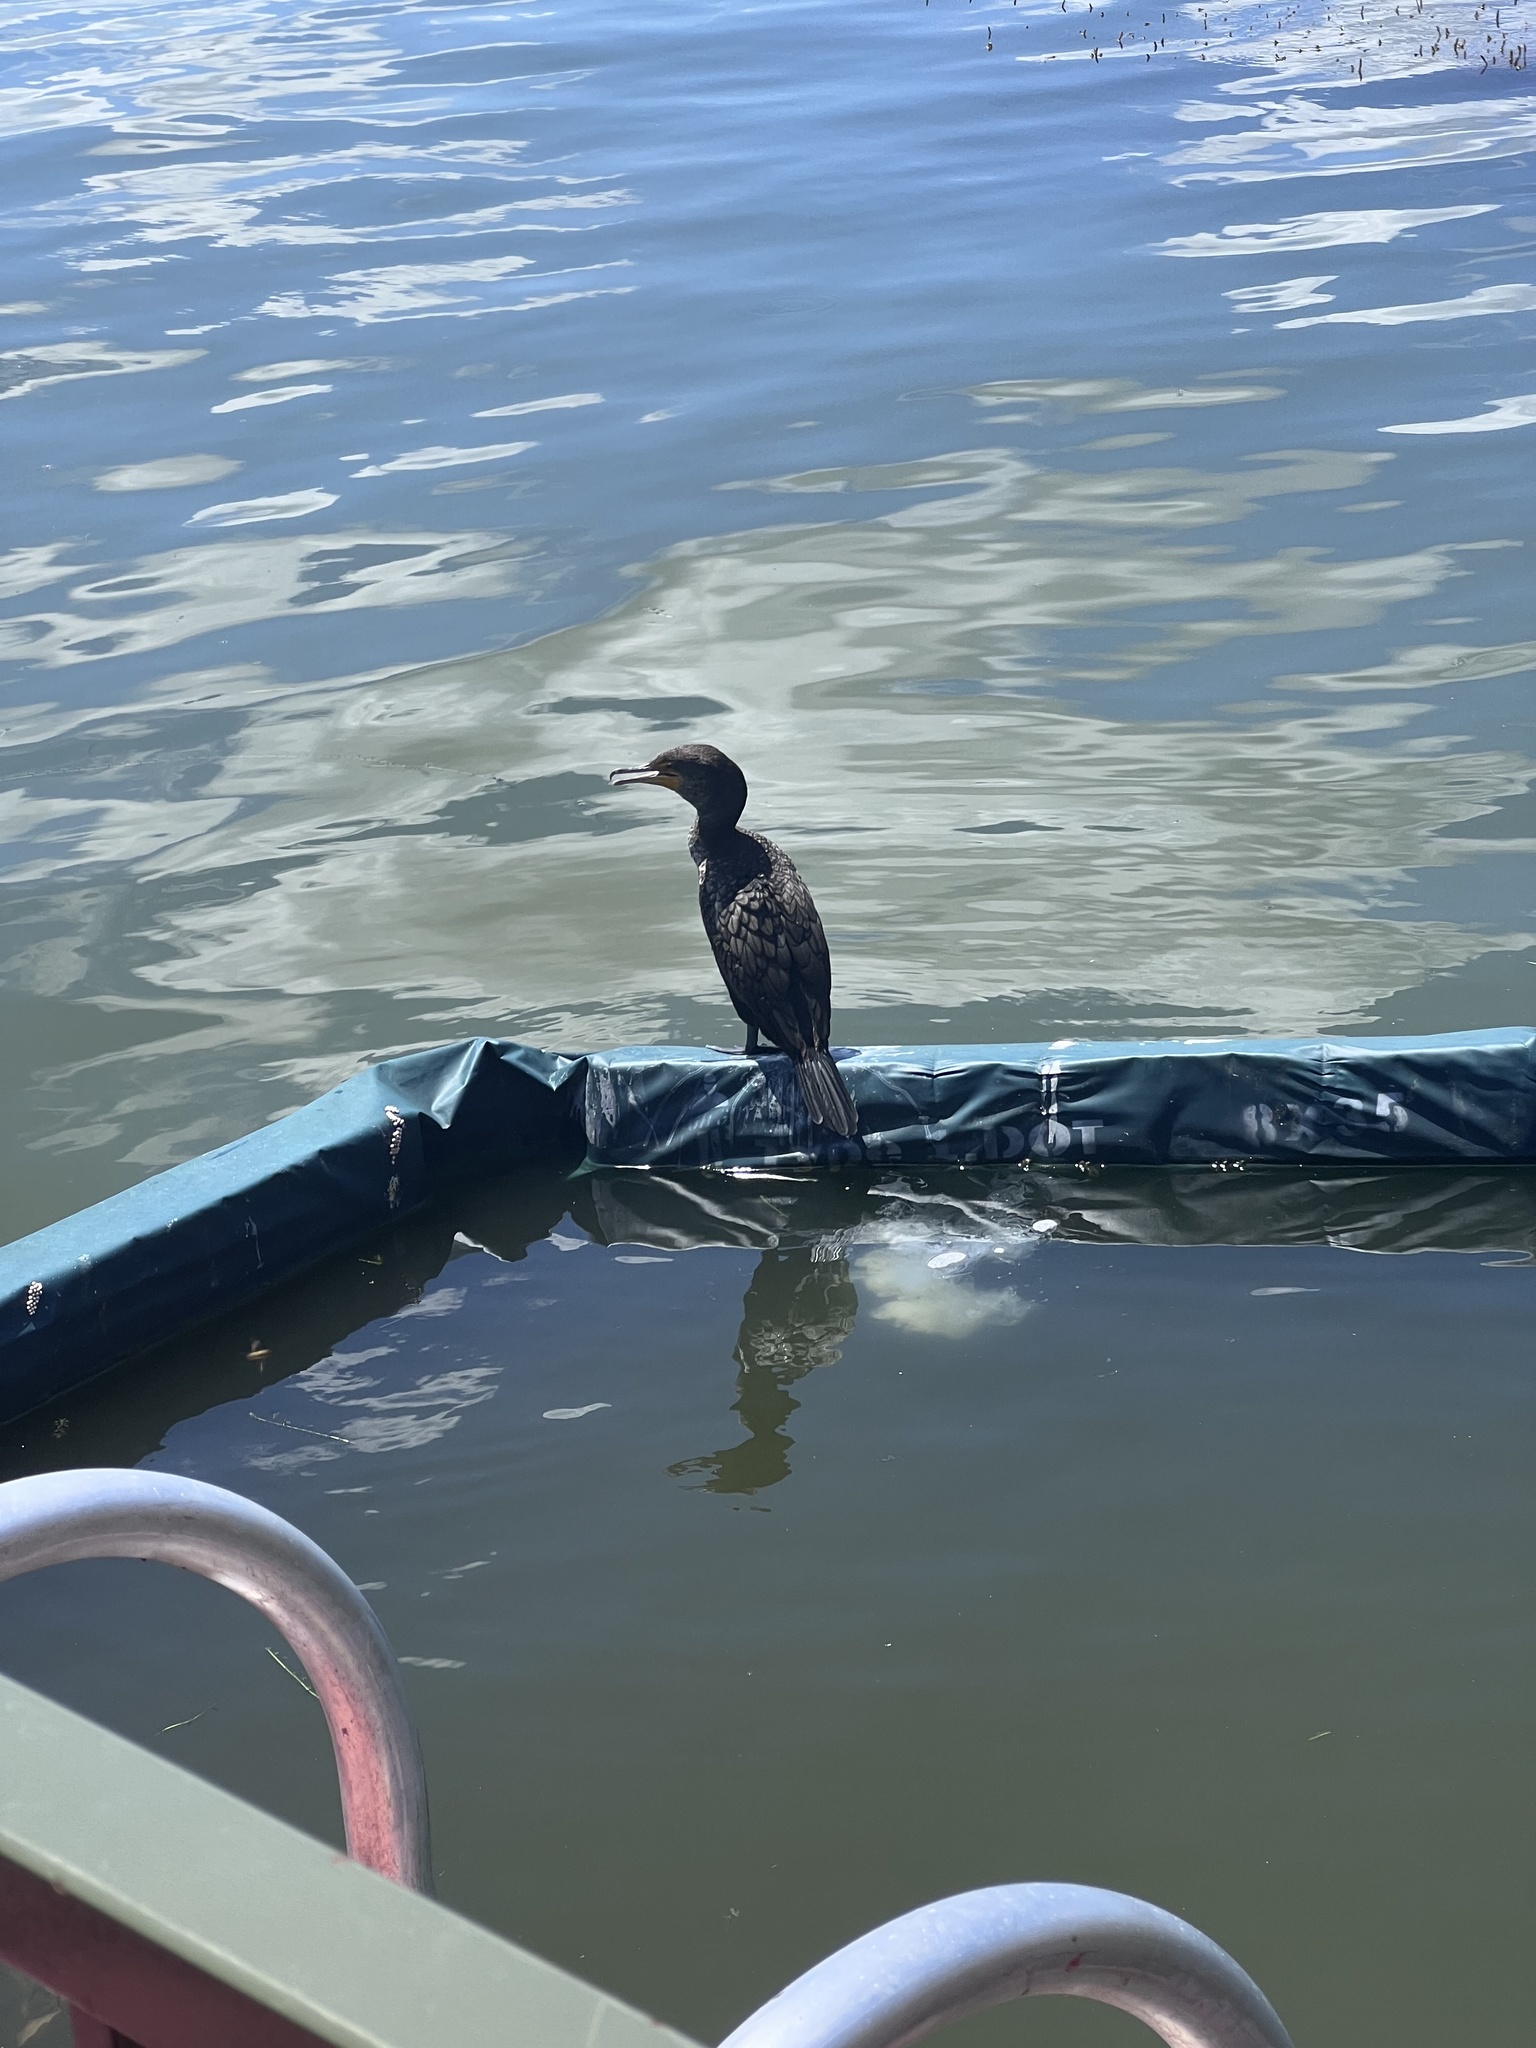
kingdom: Animalia
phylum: Chordata
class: Aves
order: Suliformes
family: Phalacrocoracidae
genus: Phalacrocorax
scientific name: Phalacrocorax auritus
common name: Double-crested cormorant
